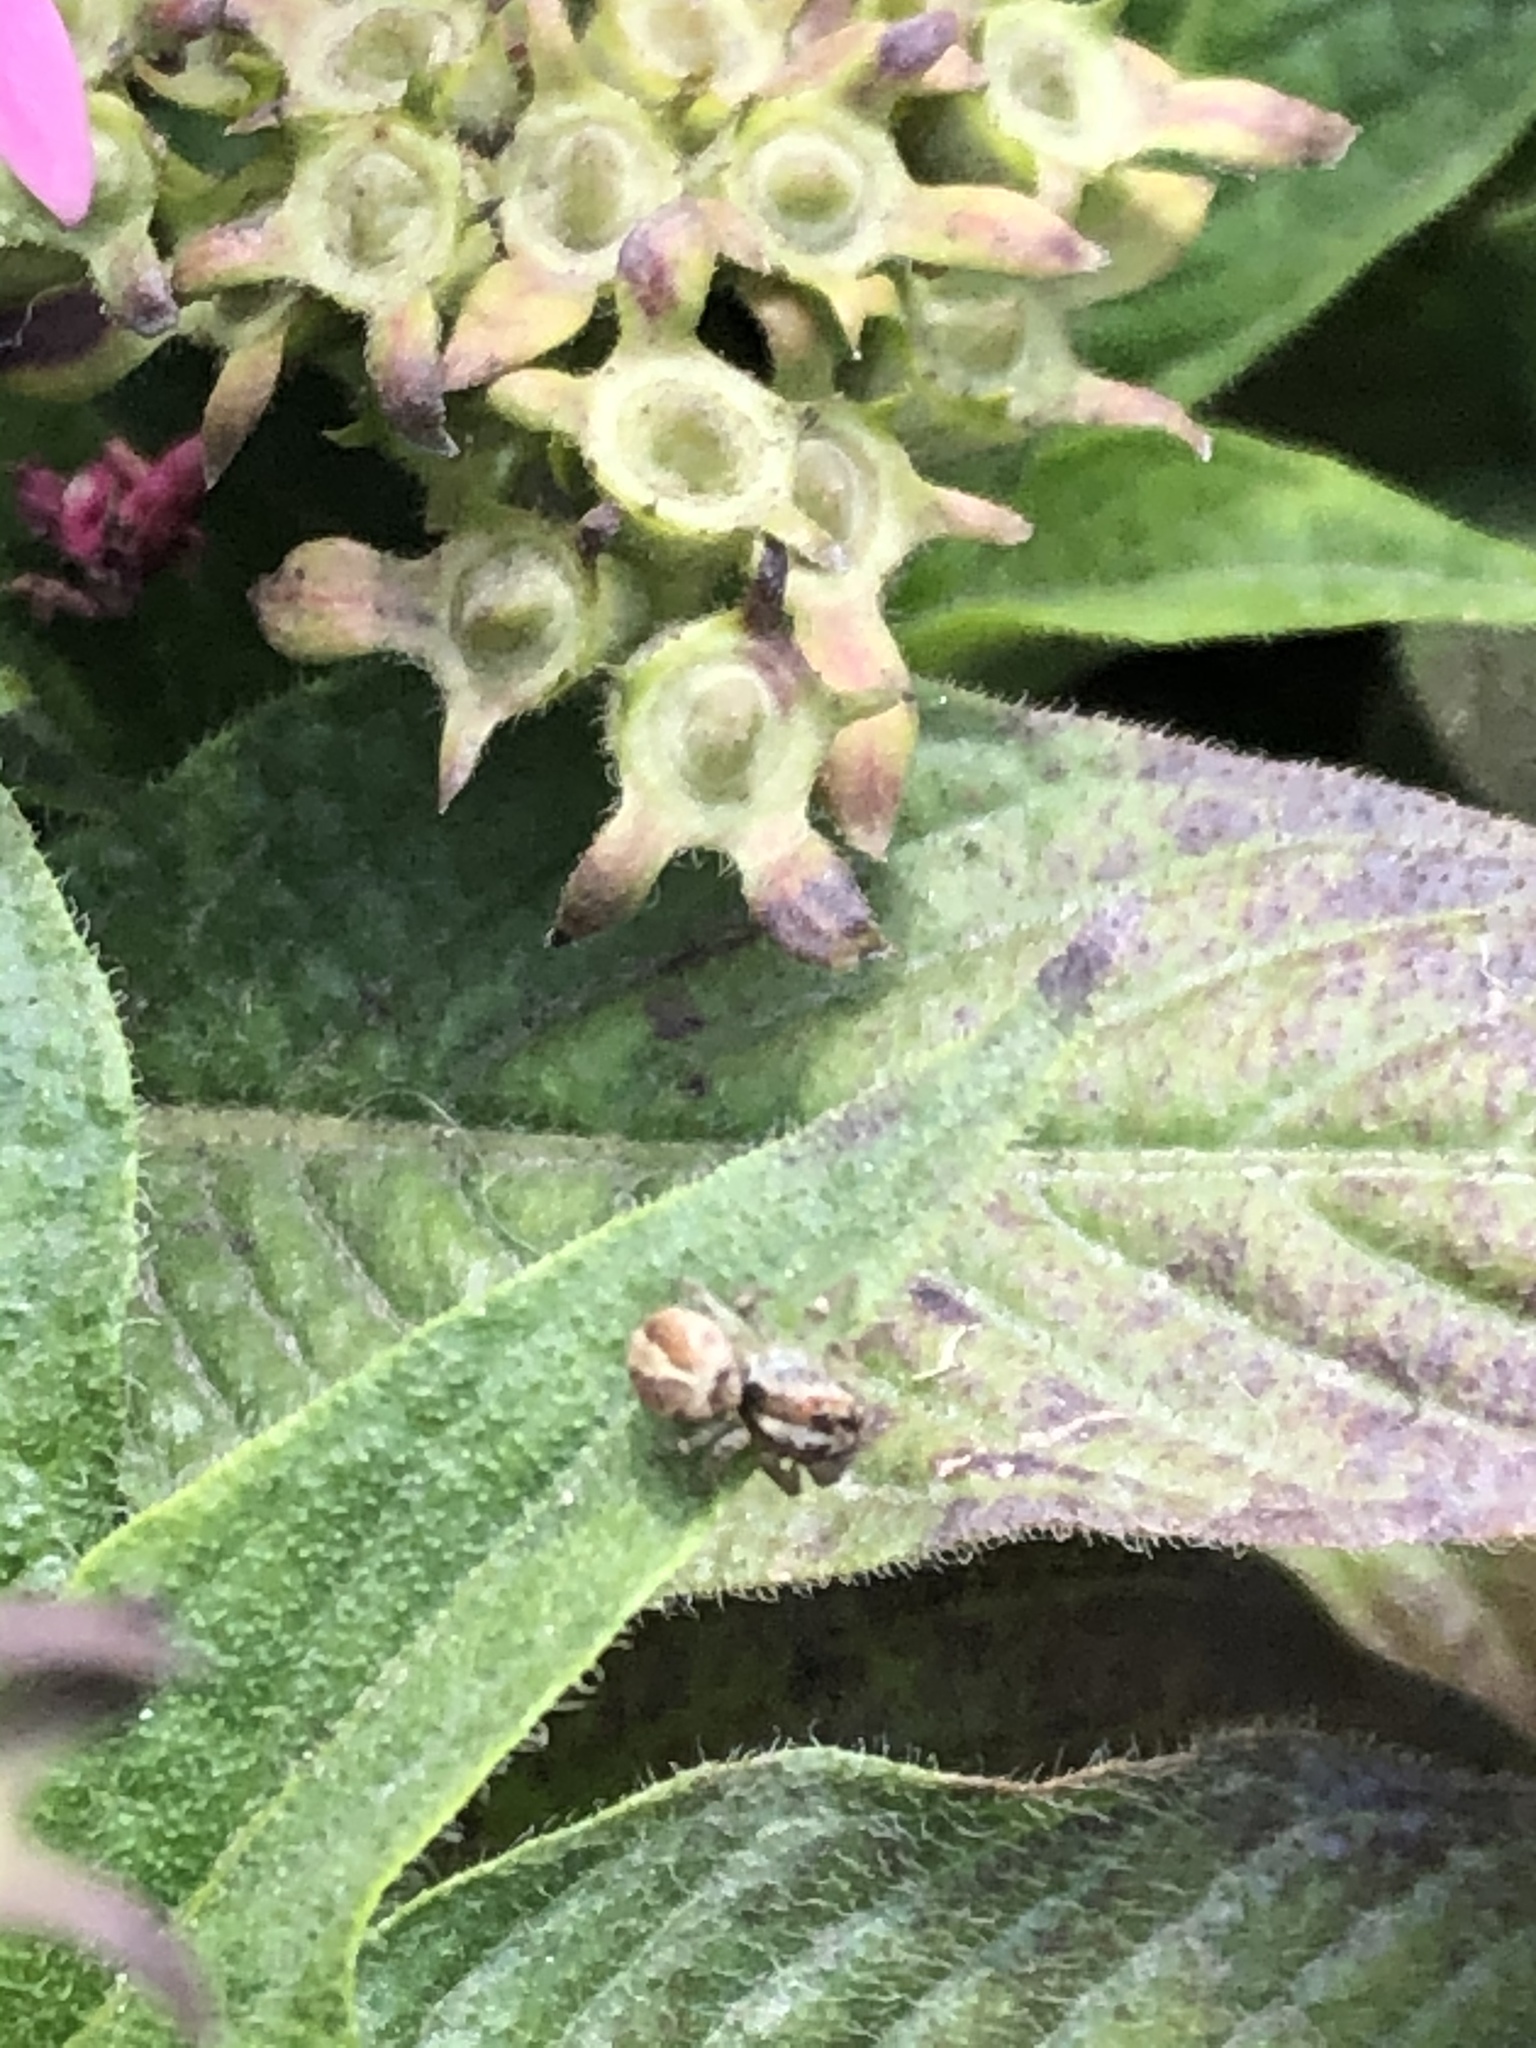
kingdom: Animalia
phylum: Arthropoda
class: Arachnida
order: Araneae
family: Salticidae
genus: Frigga
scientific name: Frigga crocuta
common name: Jumping spiders
